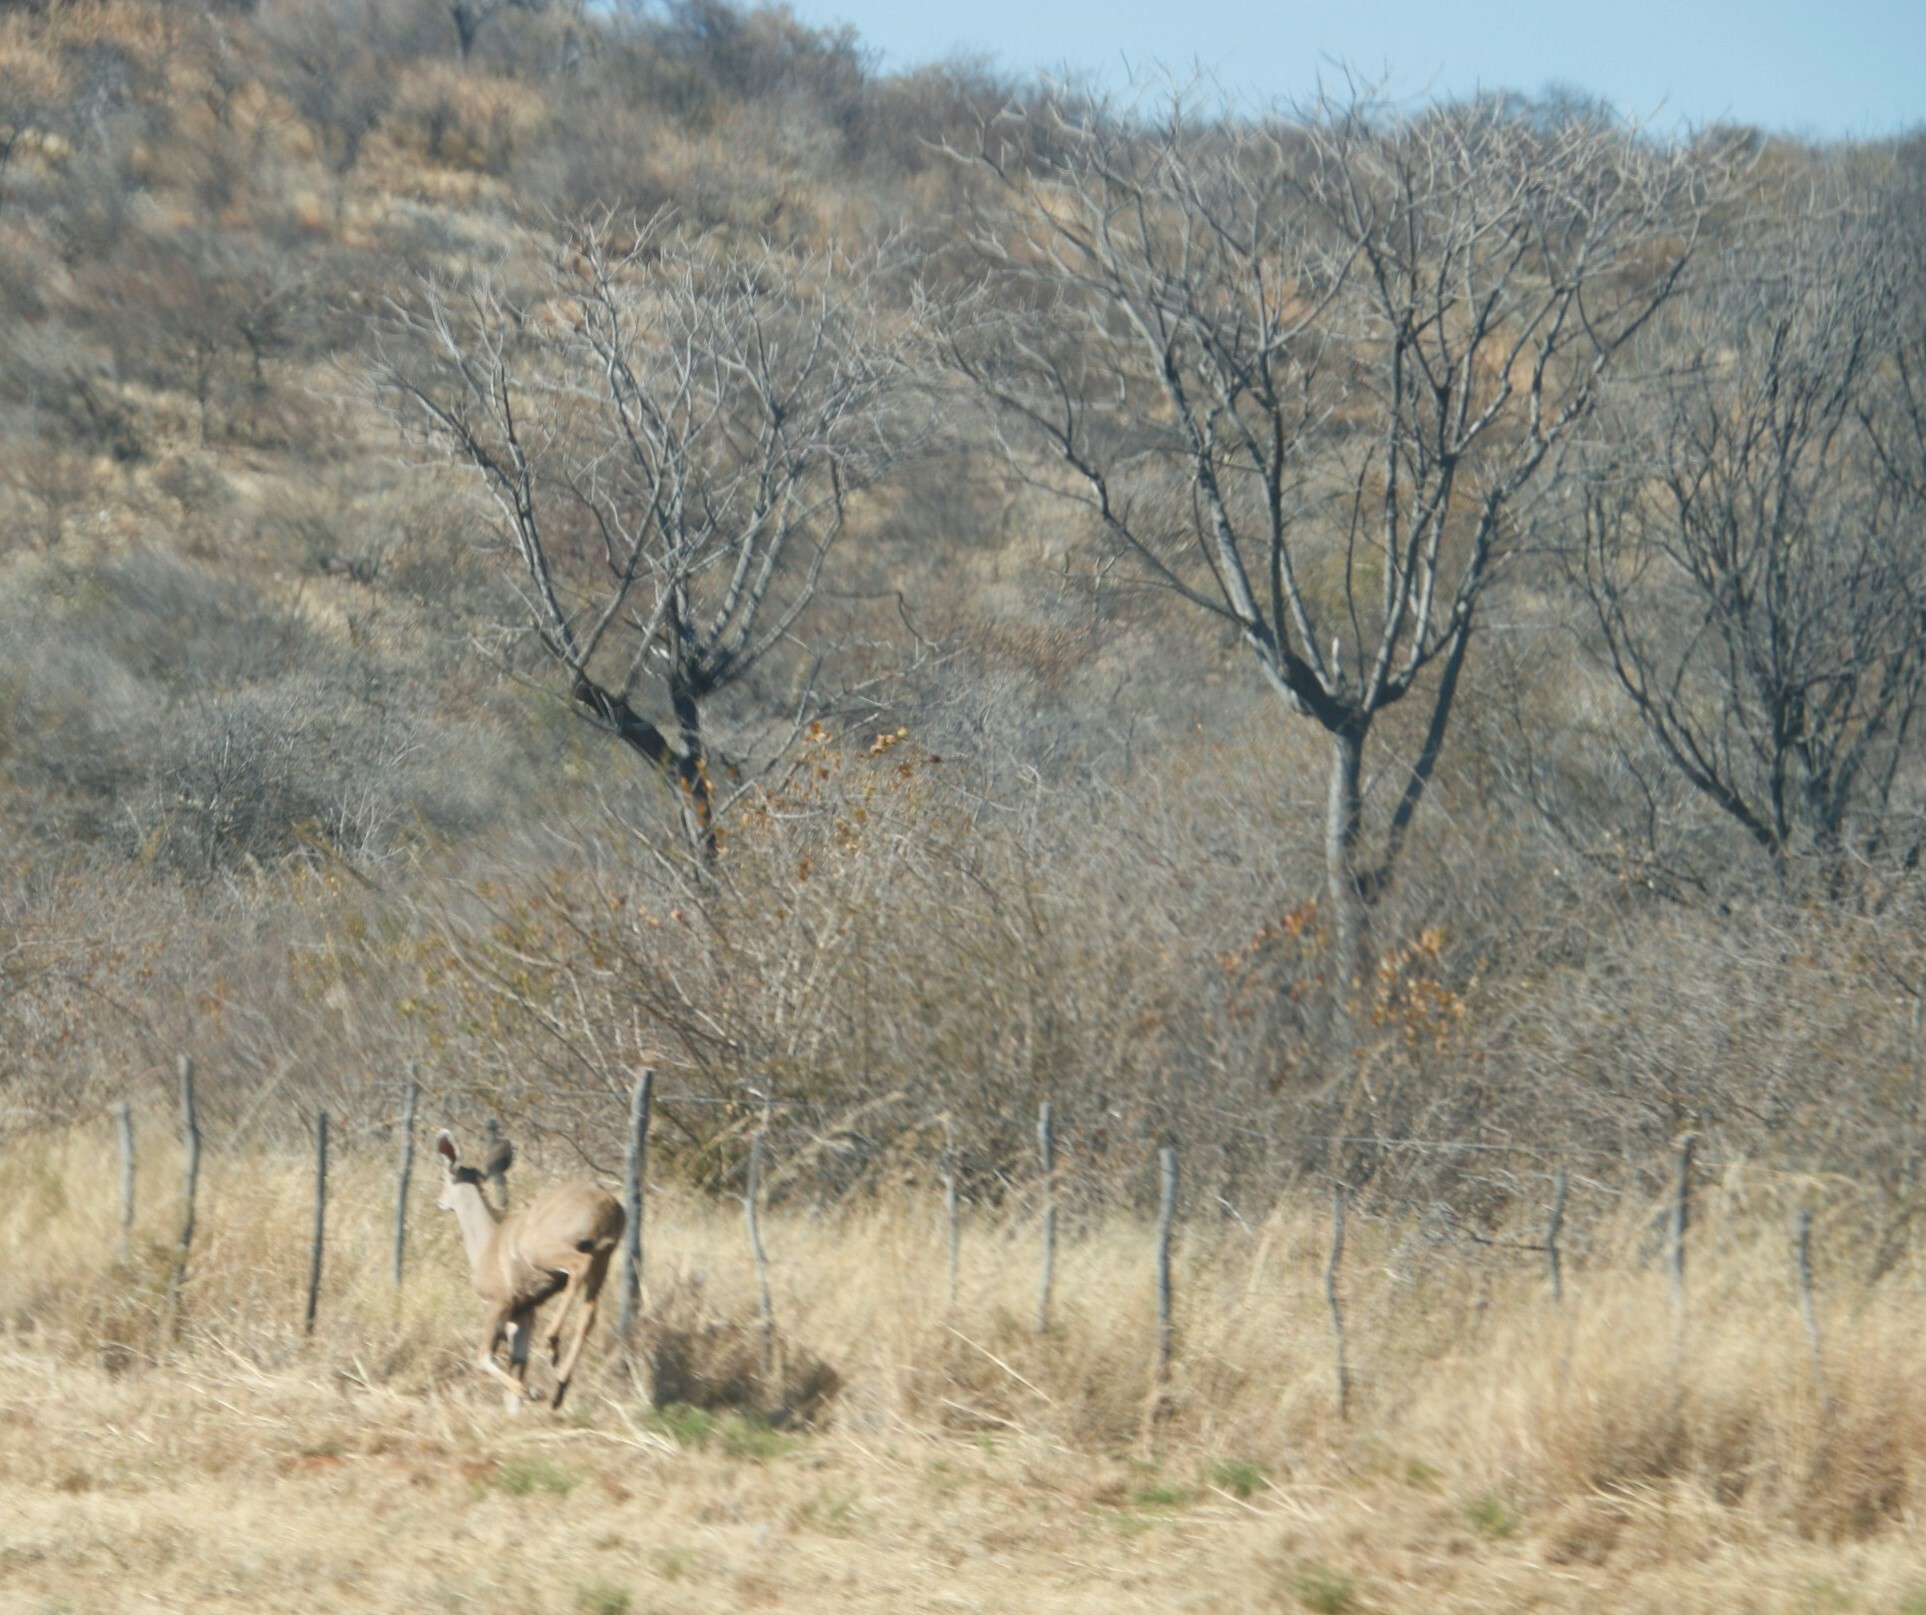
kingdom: Animalia
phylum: Chordata
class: Mammalia
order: Artiodactyla
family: Bovidae
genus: Tragelaphus
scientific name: Tragelaphus strepsiceros
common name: Greater kudu
